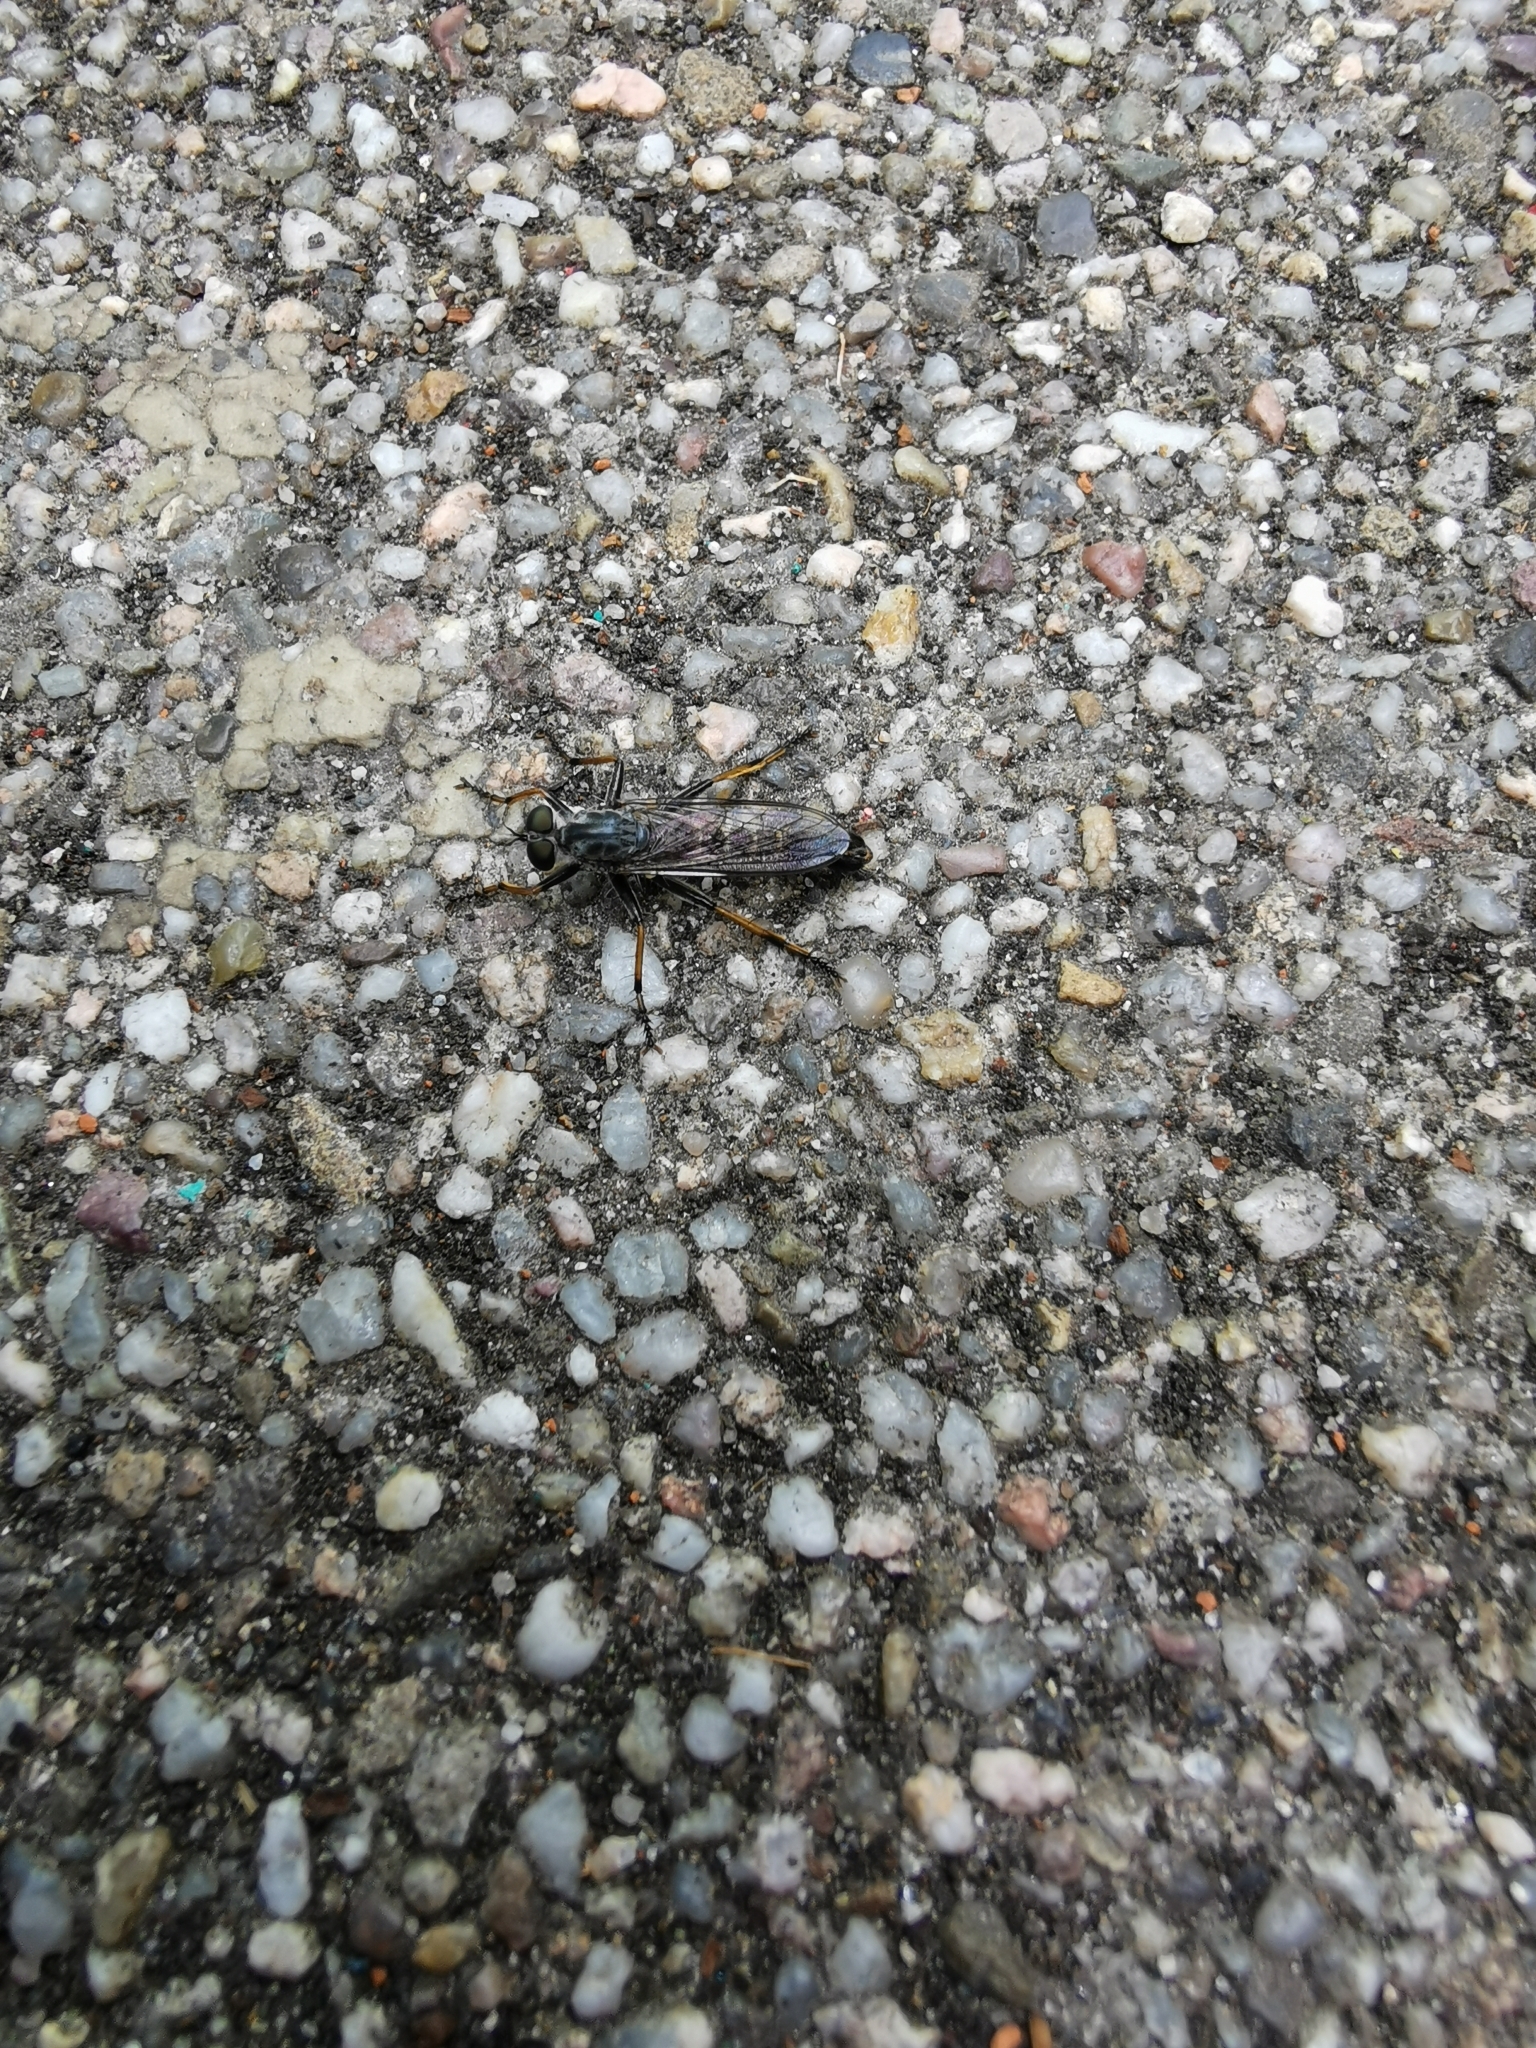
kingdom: Animalia
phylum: Arthropoda
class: Insecta
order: Diptera
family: Asilidae
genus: Paritamus
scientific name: Paritamus geniculatus
